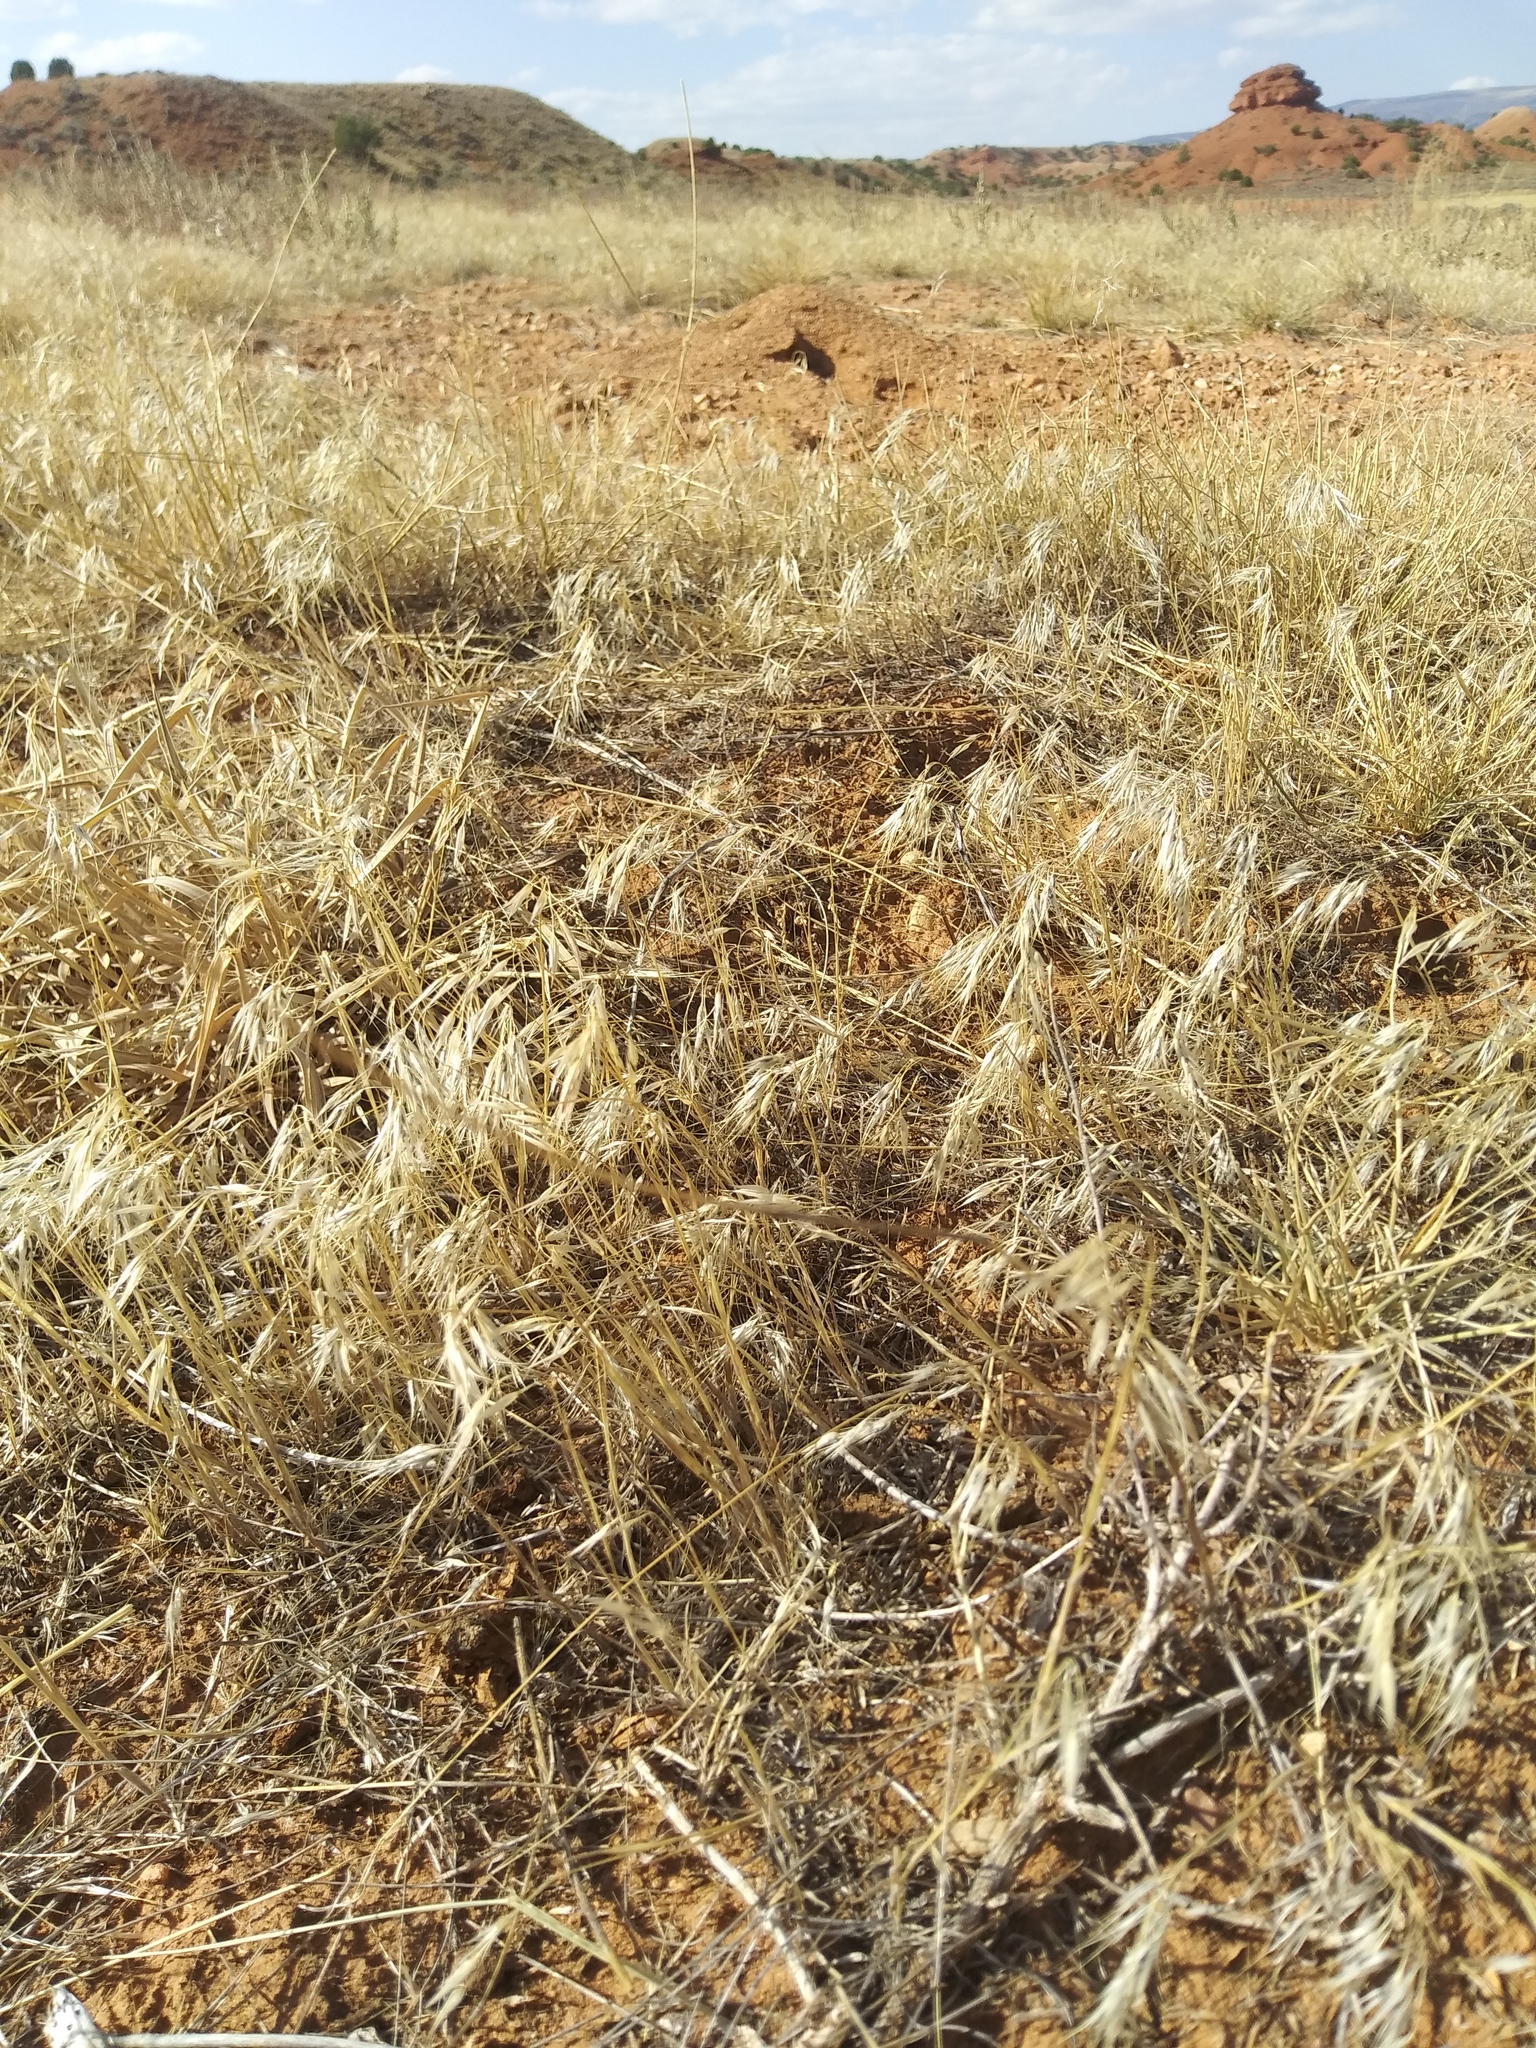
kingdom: Plantae
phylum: Tracheophyta
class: Liliopsida
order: Poales
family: Poaceae
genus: Bromus
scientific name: Bromus tectorum
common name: Cheatgrass
